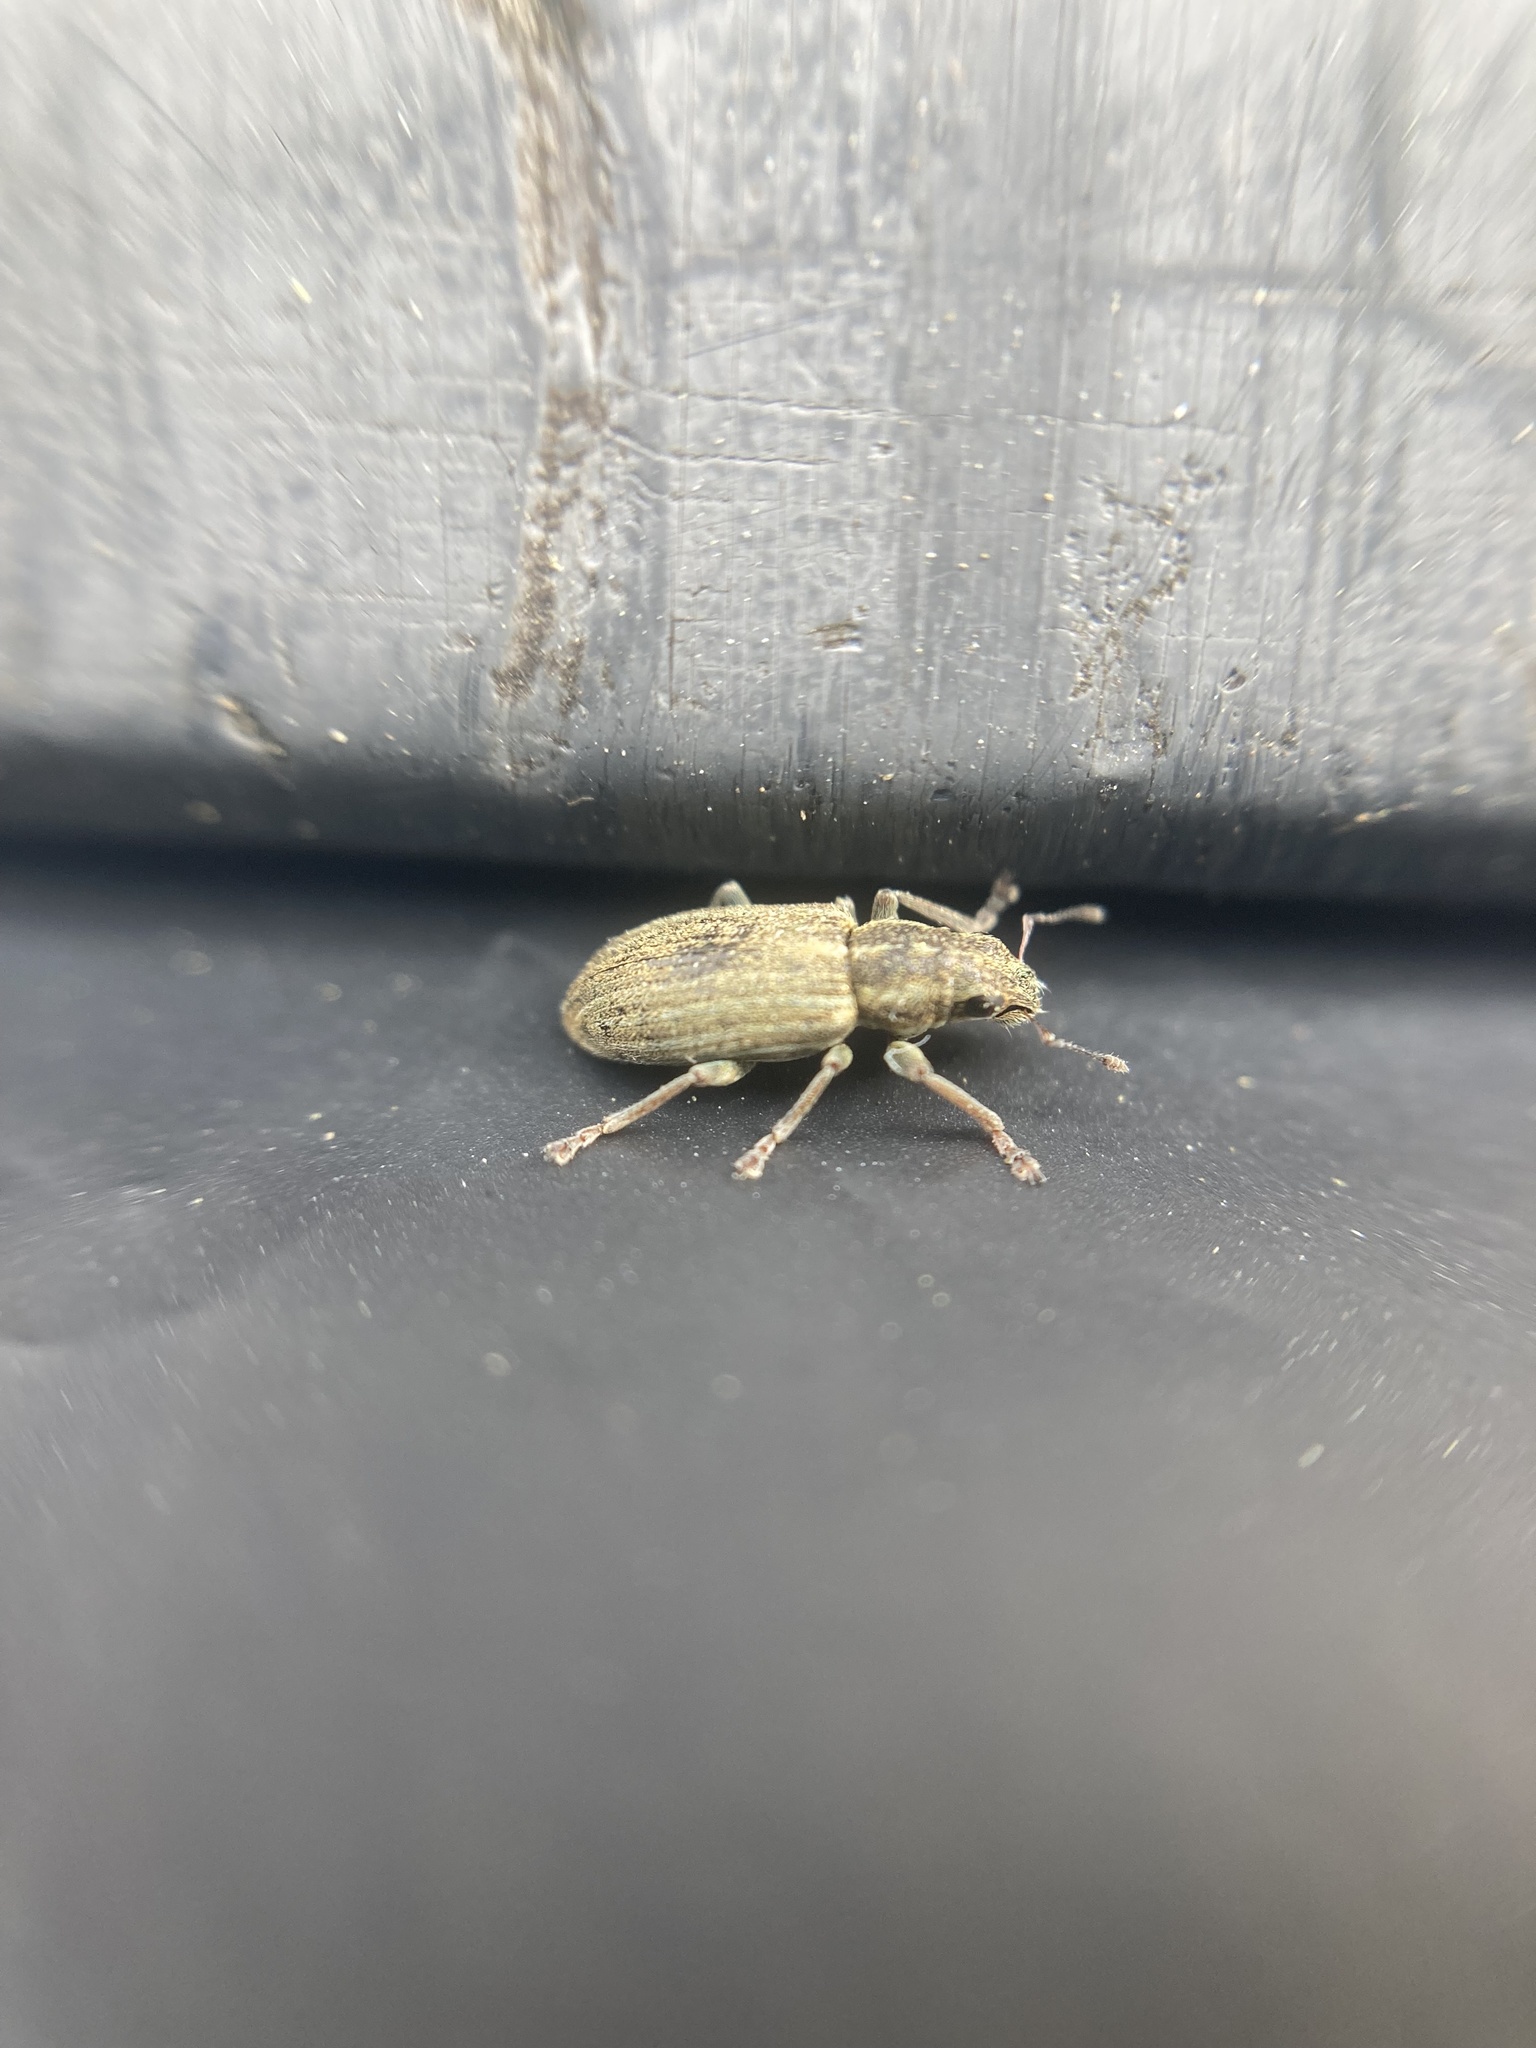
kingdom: Animalia
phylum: Arthropoda
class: Insecta
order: Coleoptera
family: Curculionidae
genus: Sitona
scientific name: Sitona lineatus
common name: Weevil
